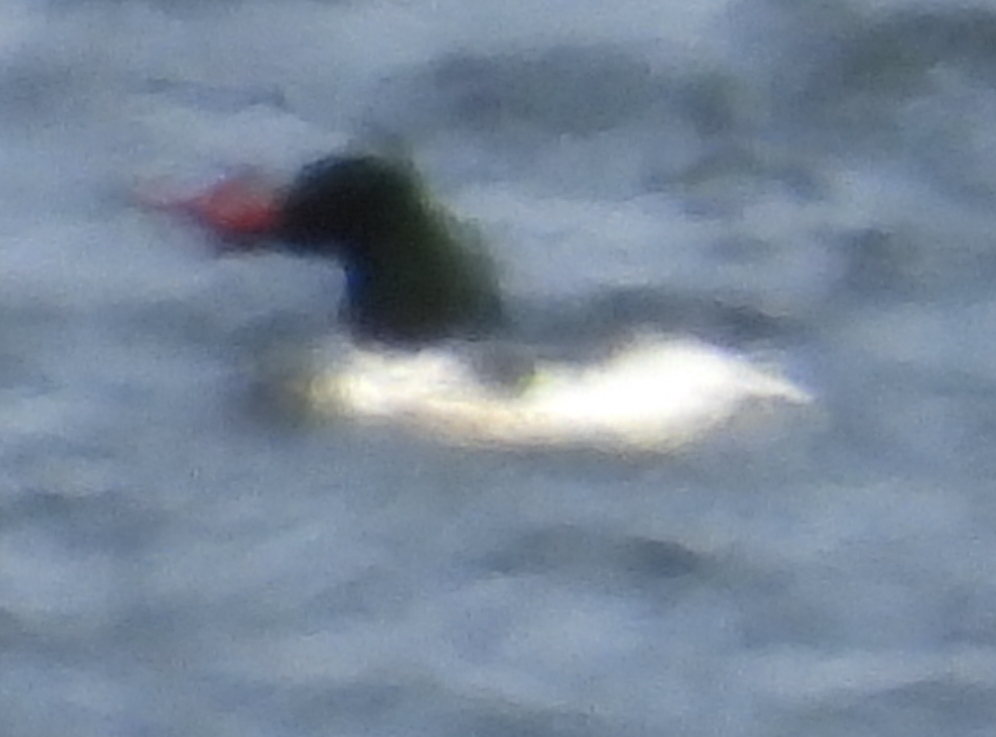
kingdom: Animalia
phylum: Chordata
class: Aves
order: Anseriformes
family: Anatidae
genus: Mergus
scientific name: Mergus merganser
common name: Common merganser
